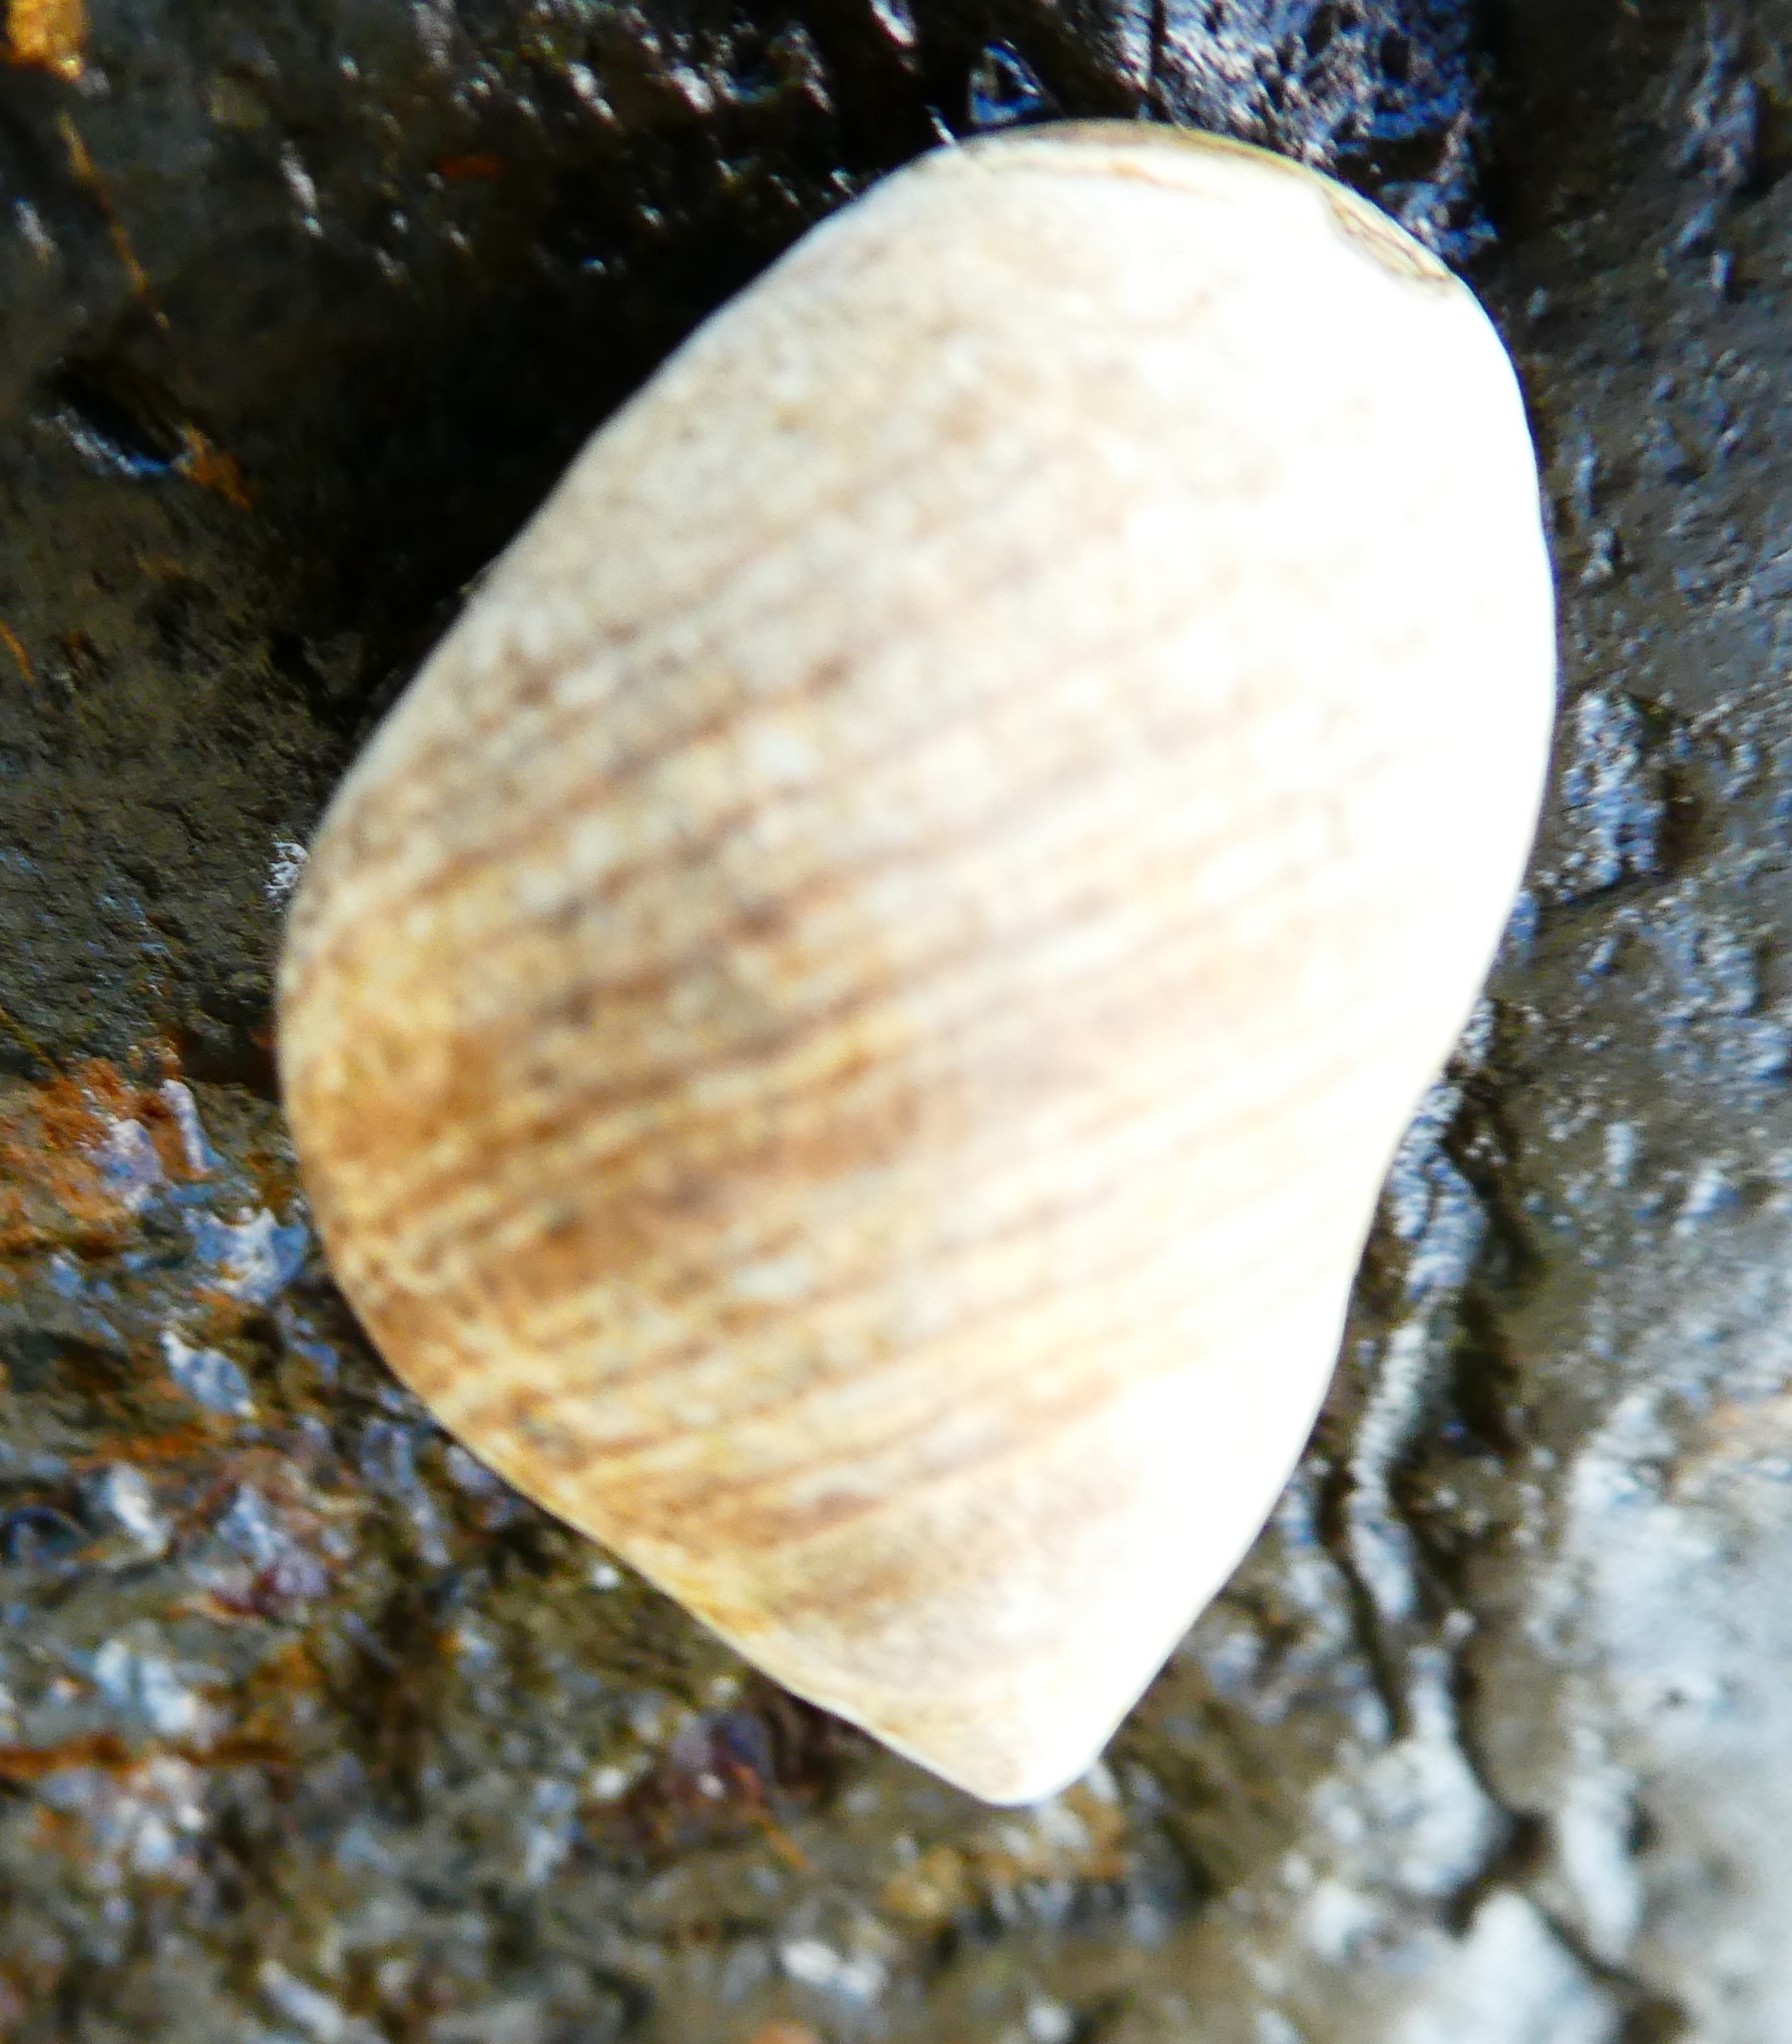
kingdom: Animalia
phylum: Mollusca
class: Gastropoda
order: Littorinimorpha
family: Littorinidae
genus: Littorina
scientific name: Littorina littorea
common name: Common periwinkle
